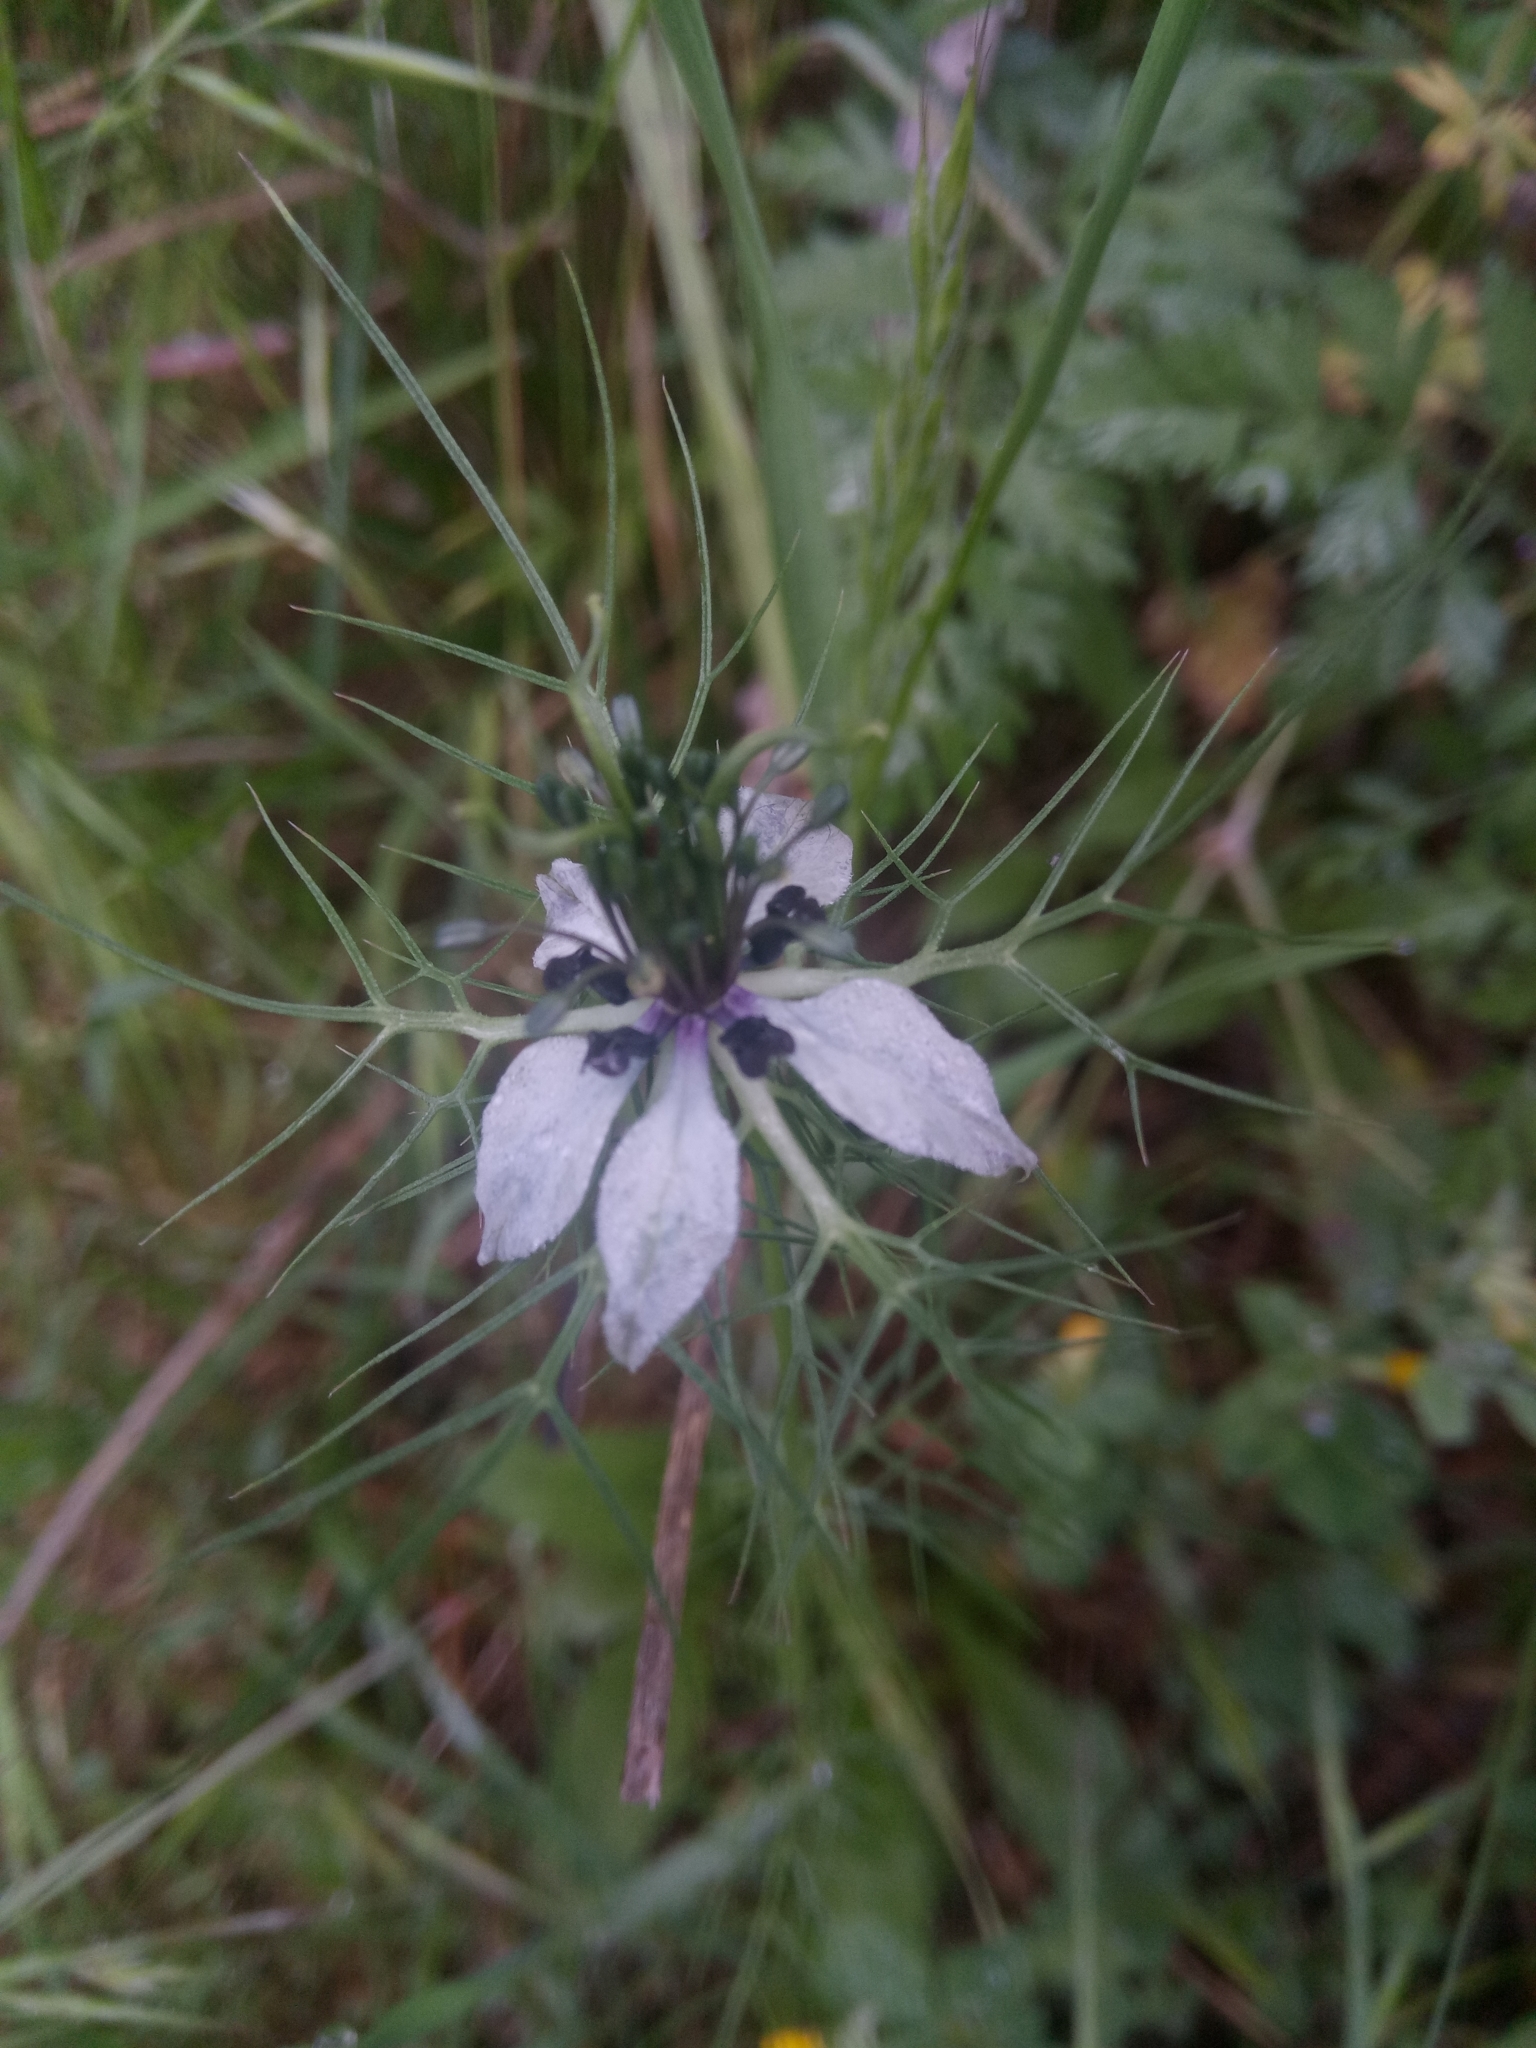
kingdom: Plantae
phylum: Tracheophyta
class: Magnoliopsida
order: Ranunculales
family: Ranunculaceae
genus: Nigella
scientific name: Nigella damascena
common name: Love-in-a-mist
